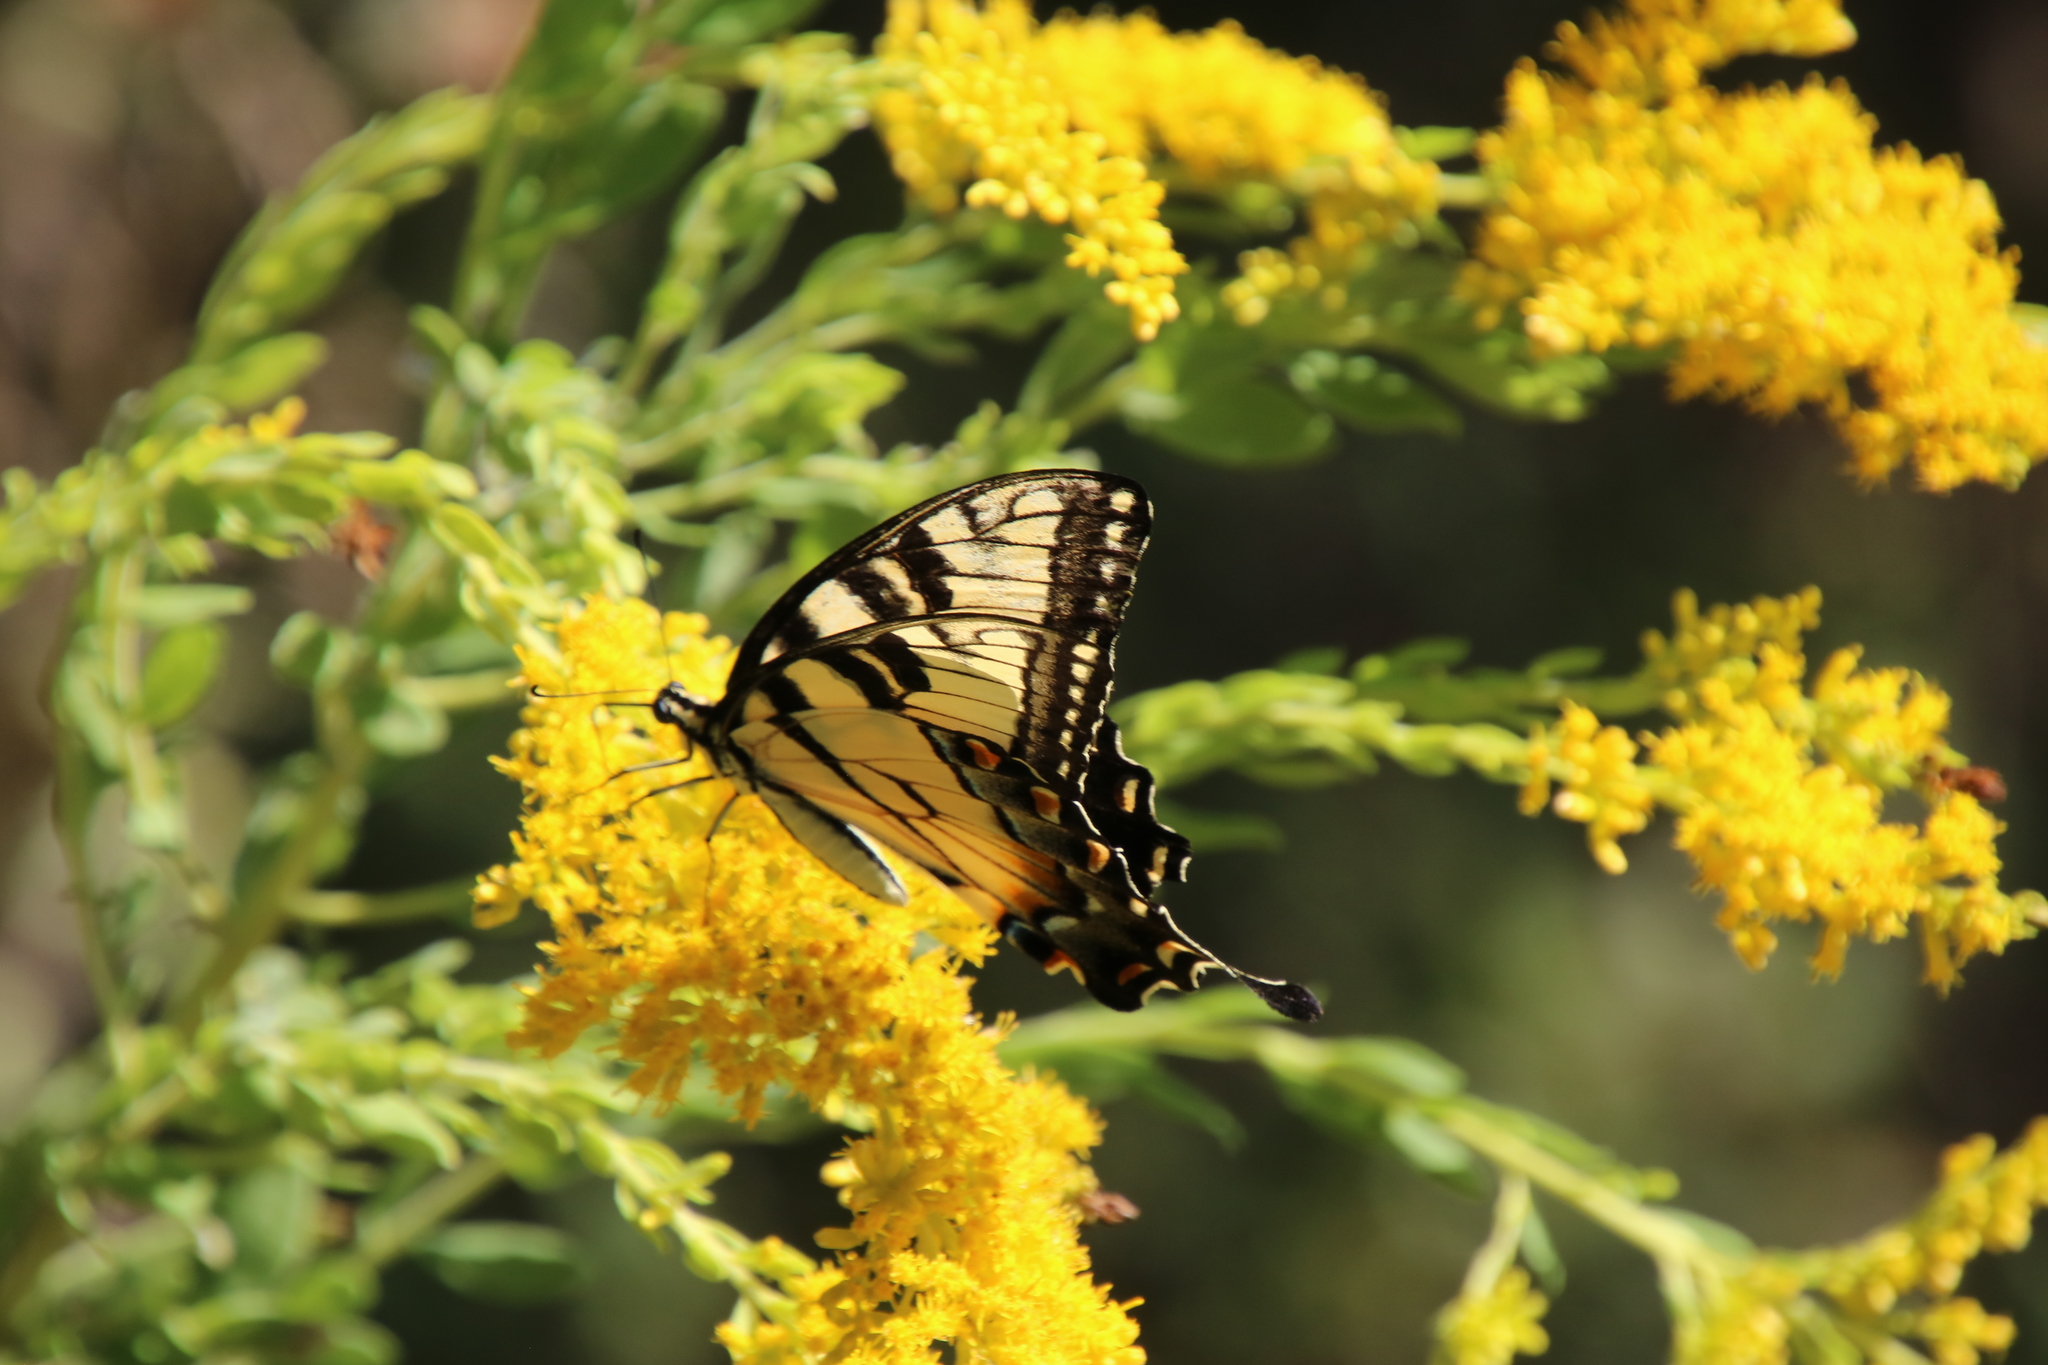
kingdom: Animalia
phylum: Arthropoda
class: Insecta
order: Lepidoptera
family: Papilionidae
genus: Papilio
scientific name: Papilio glaucus
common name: Tiger swallowtail
